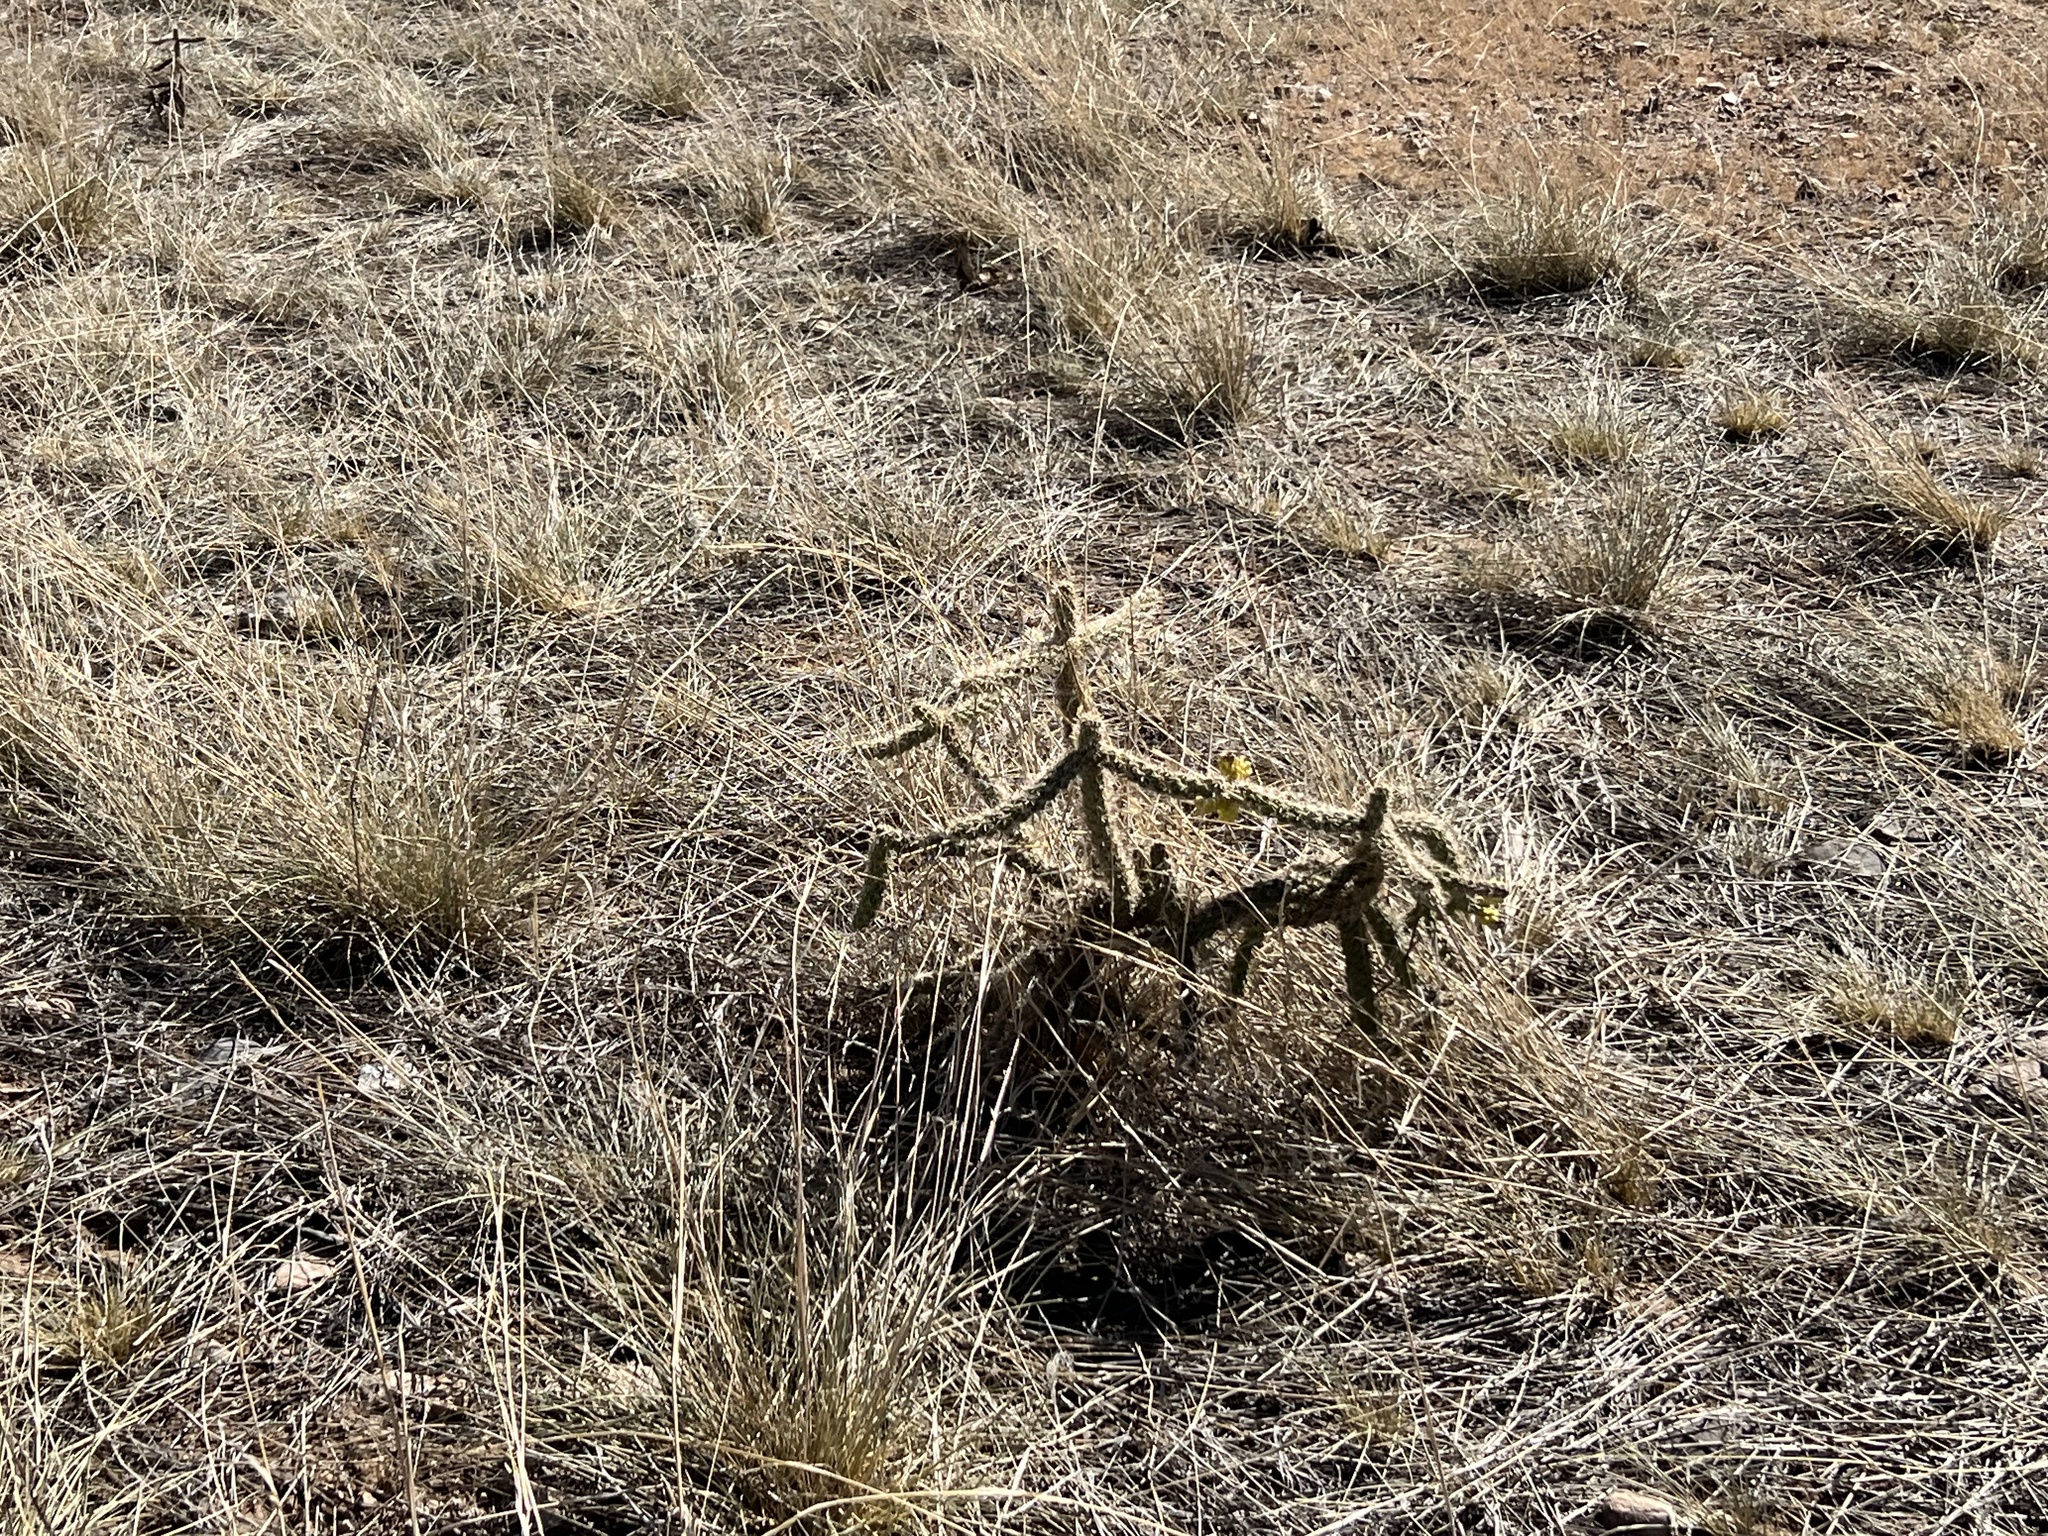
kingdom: Plantae
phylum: Tracheophyta
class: Magnoliopsida
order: Caryophyllales
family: Cactaceae
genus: Cylindropuntia
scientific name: Cylindropuntia imbricata
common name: Candelabrum cactus
